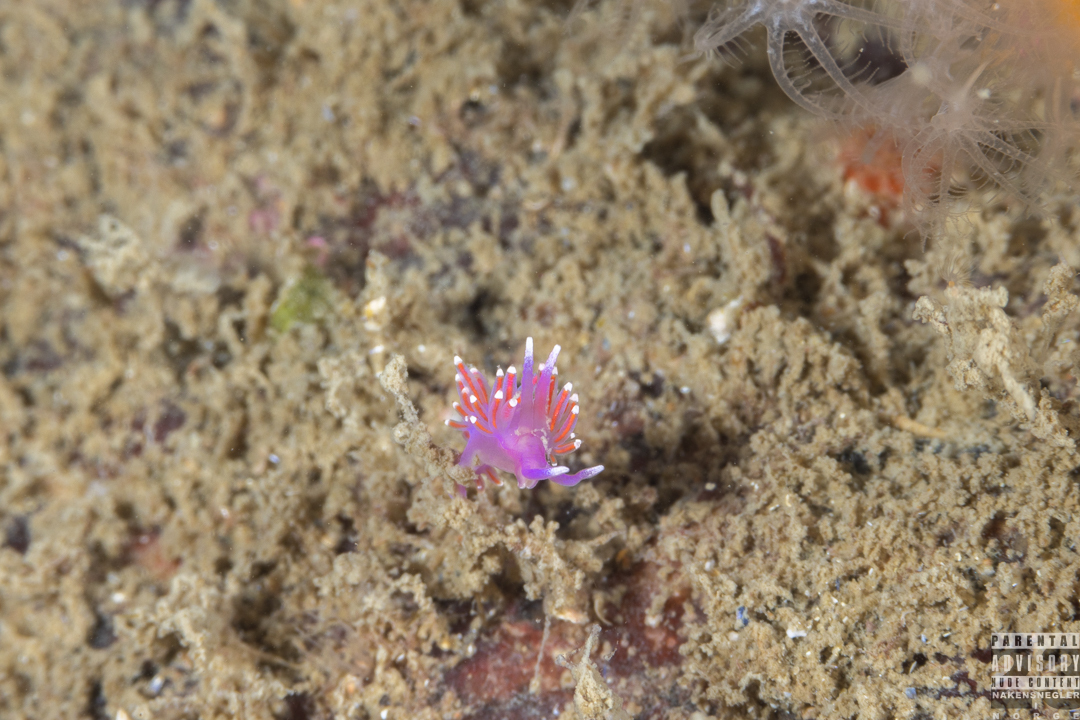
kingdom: Animalia
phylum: Mollusca
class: Gastropoda
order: Nudibranchia
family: Flabellinidae
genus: Edmundsella
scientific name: Edmundsella pedata
